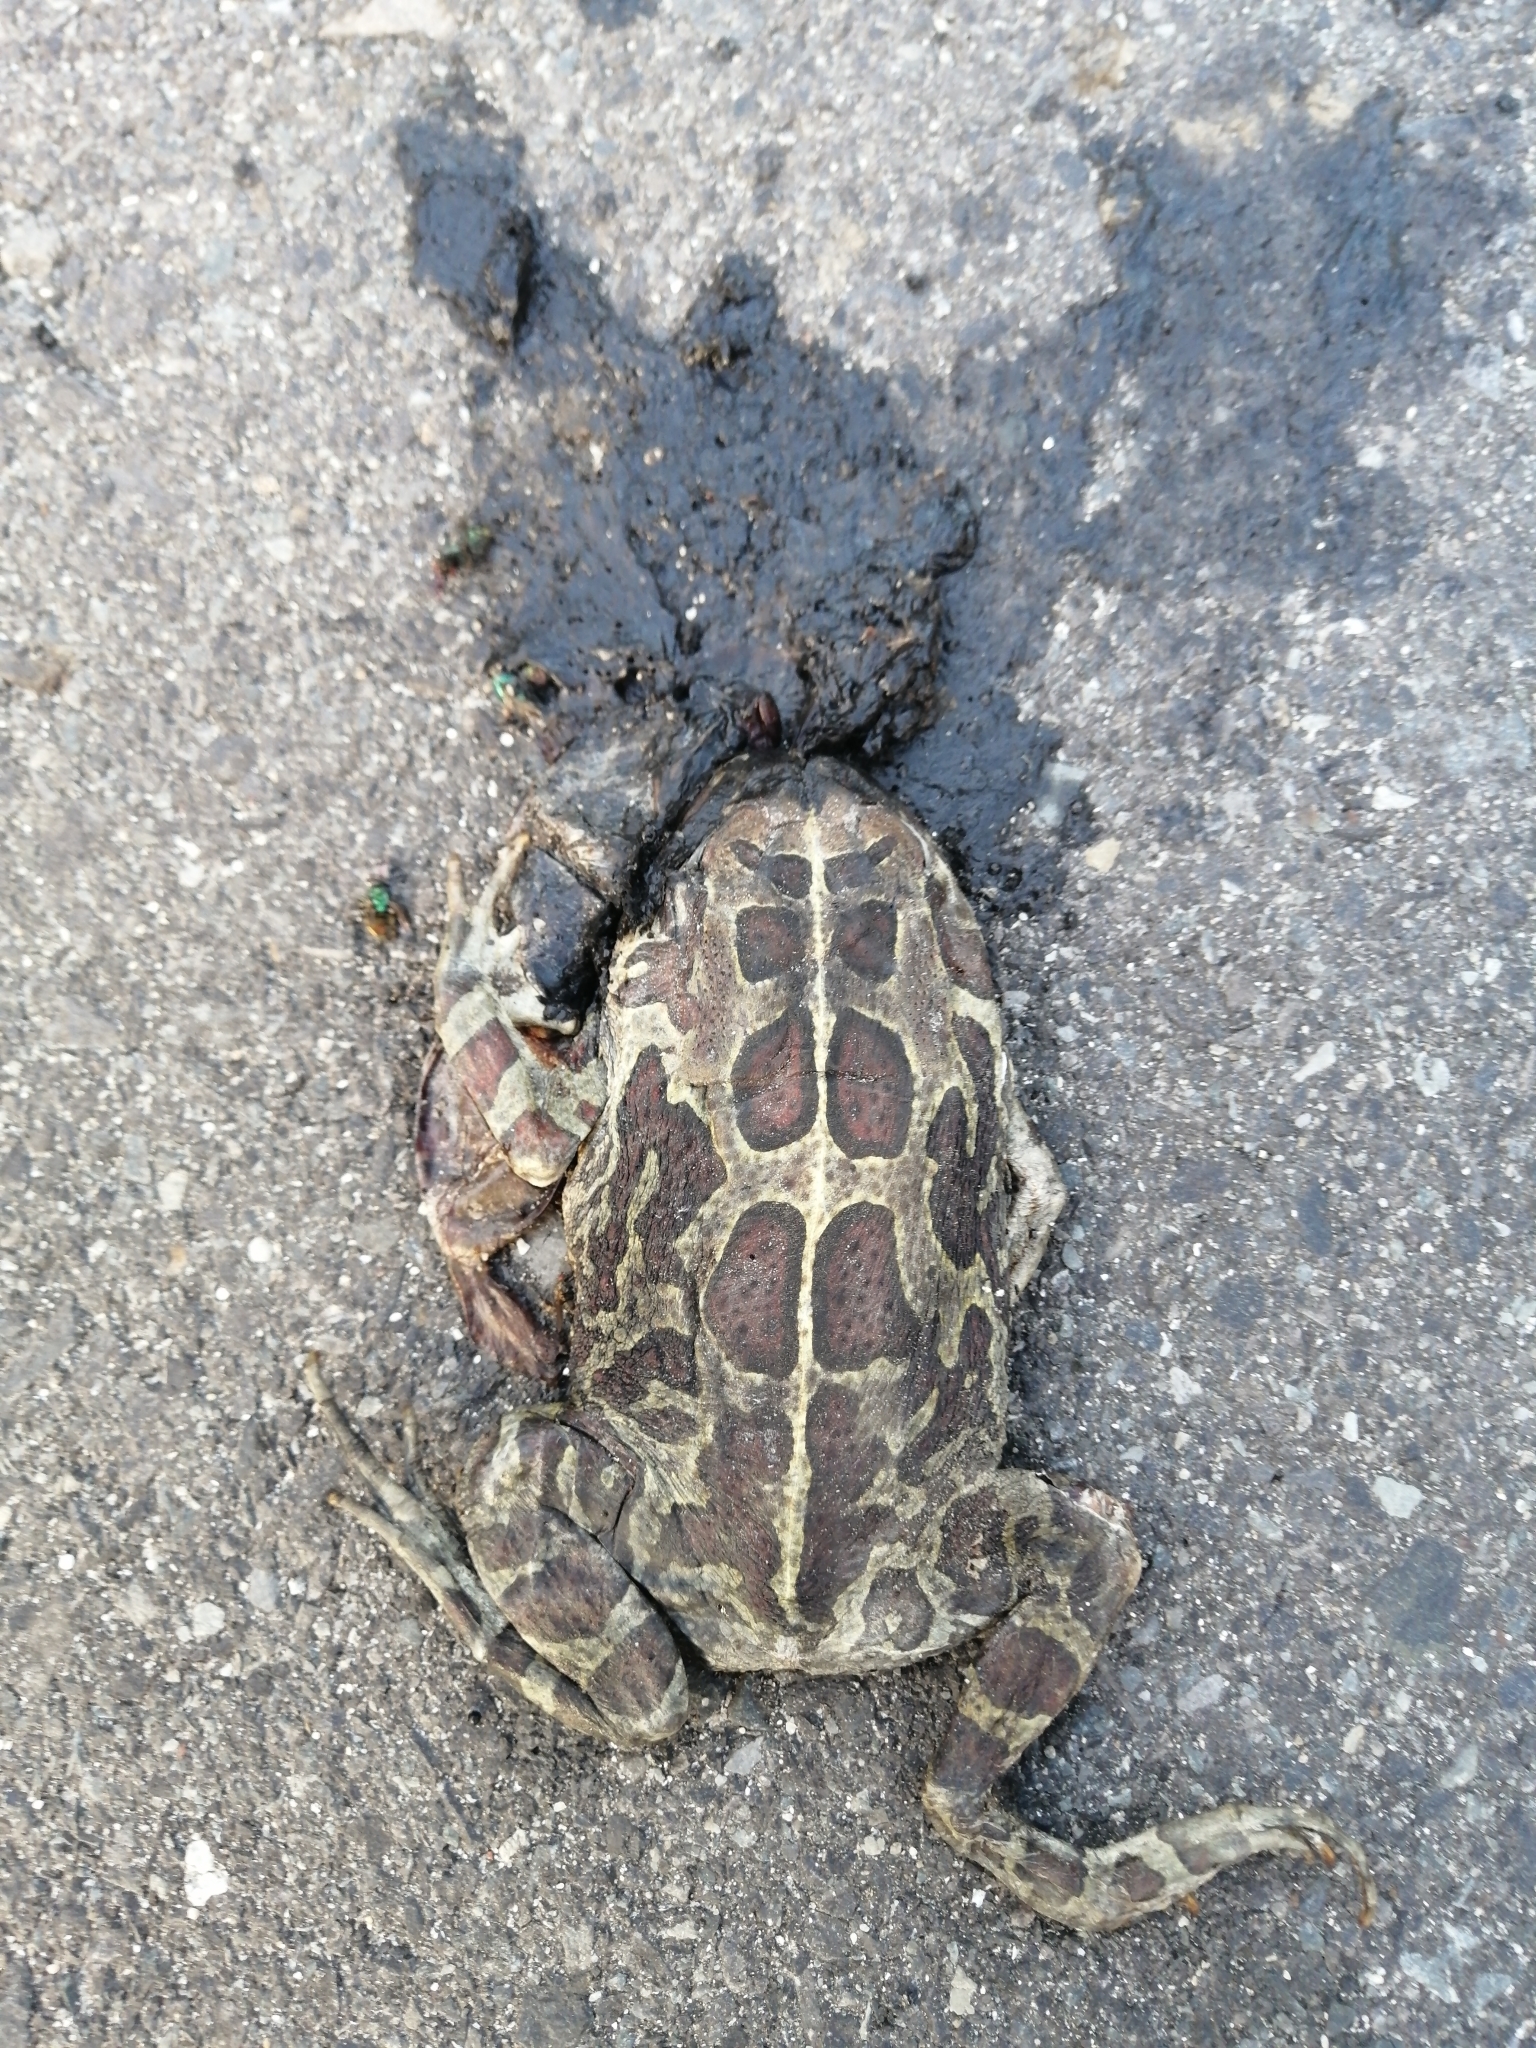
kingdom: Animalia
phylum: Chordata
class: Amphibia
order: Anura
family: Bufonidae
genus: Sclerophrys
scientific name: Sclerophrys pantherina
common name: Panther toad
